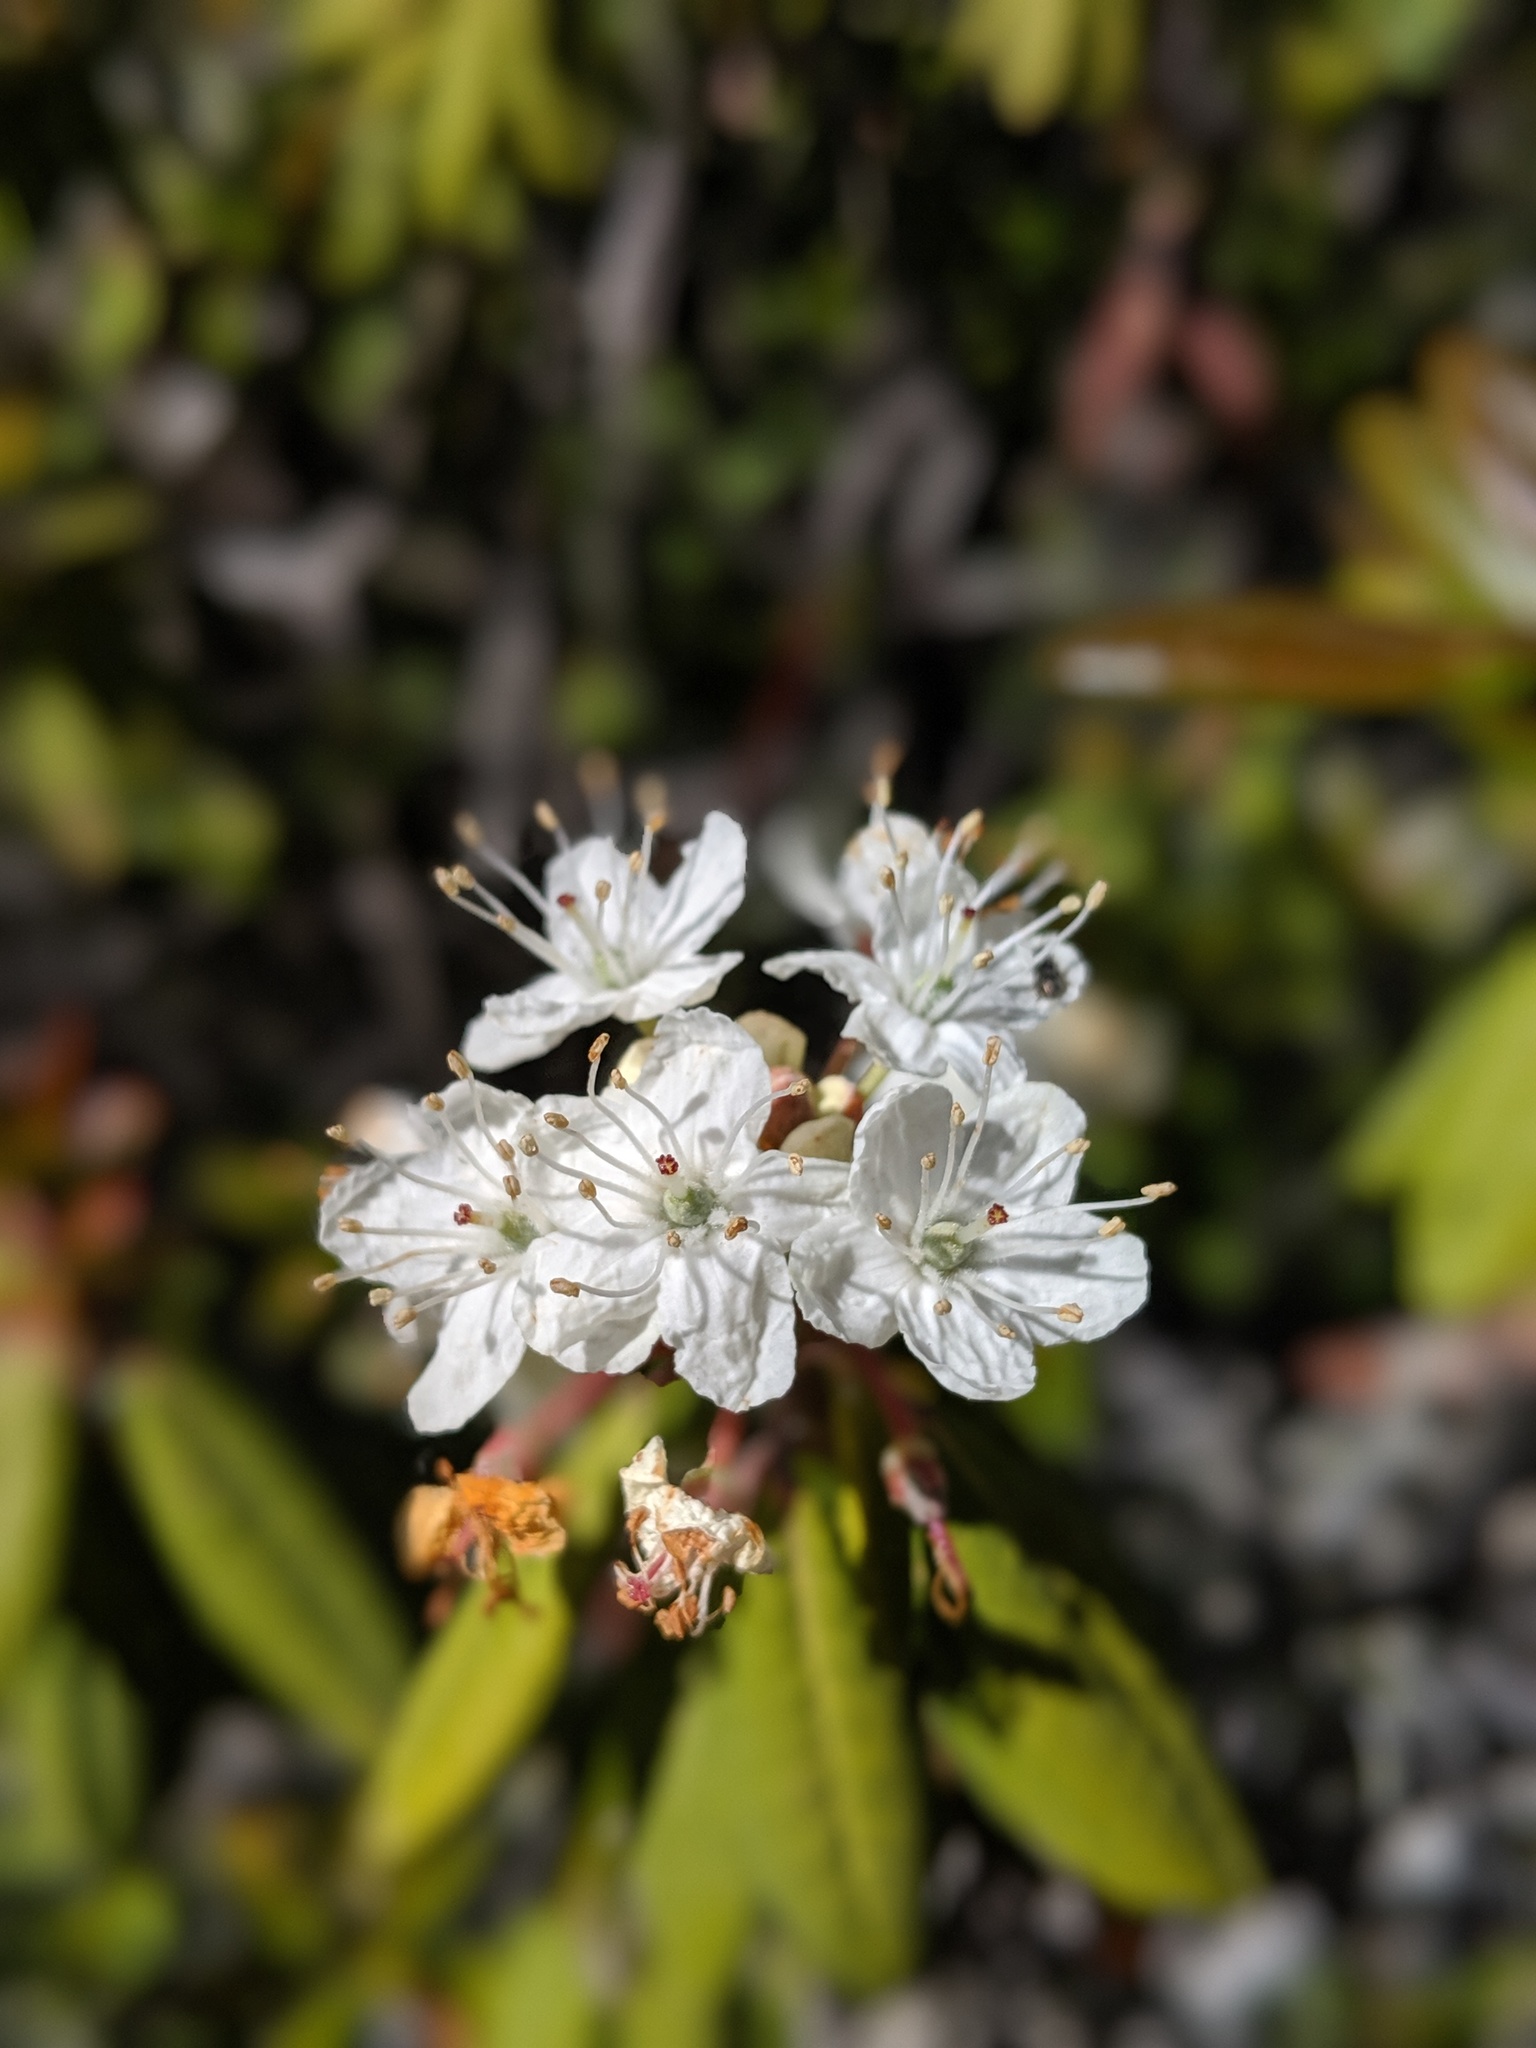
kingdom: Plantae
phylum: Tracheophyta
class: Magnoliopsida
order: Ericales
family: Ericaceae
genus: Rhododendron
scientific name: Rhododendron columbianum
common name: Western labrador tea
